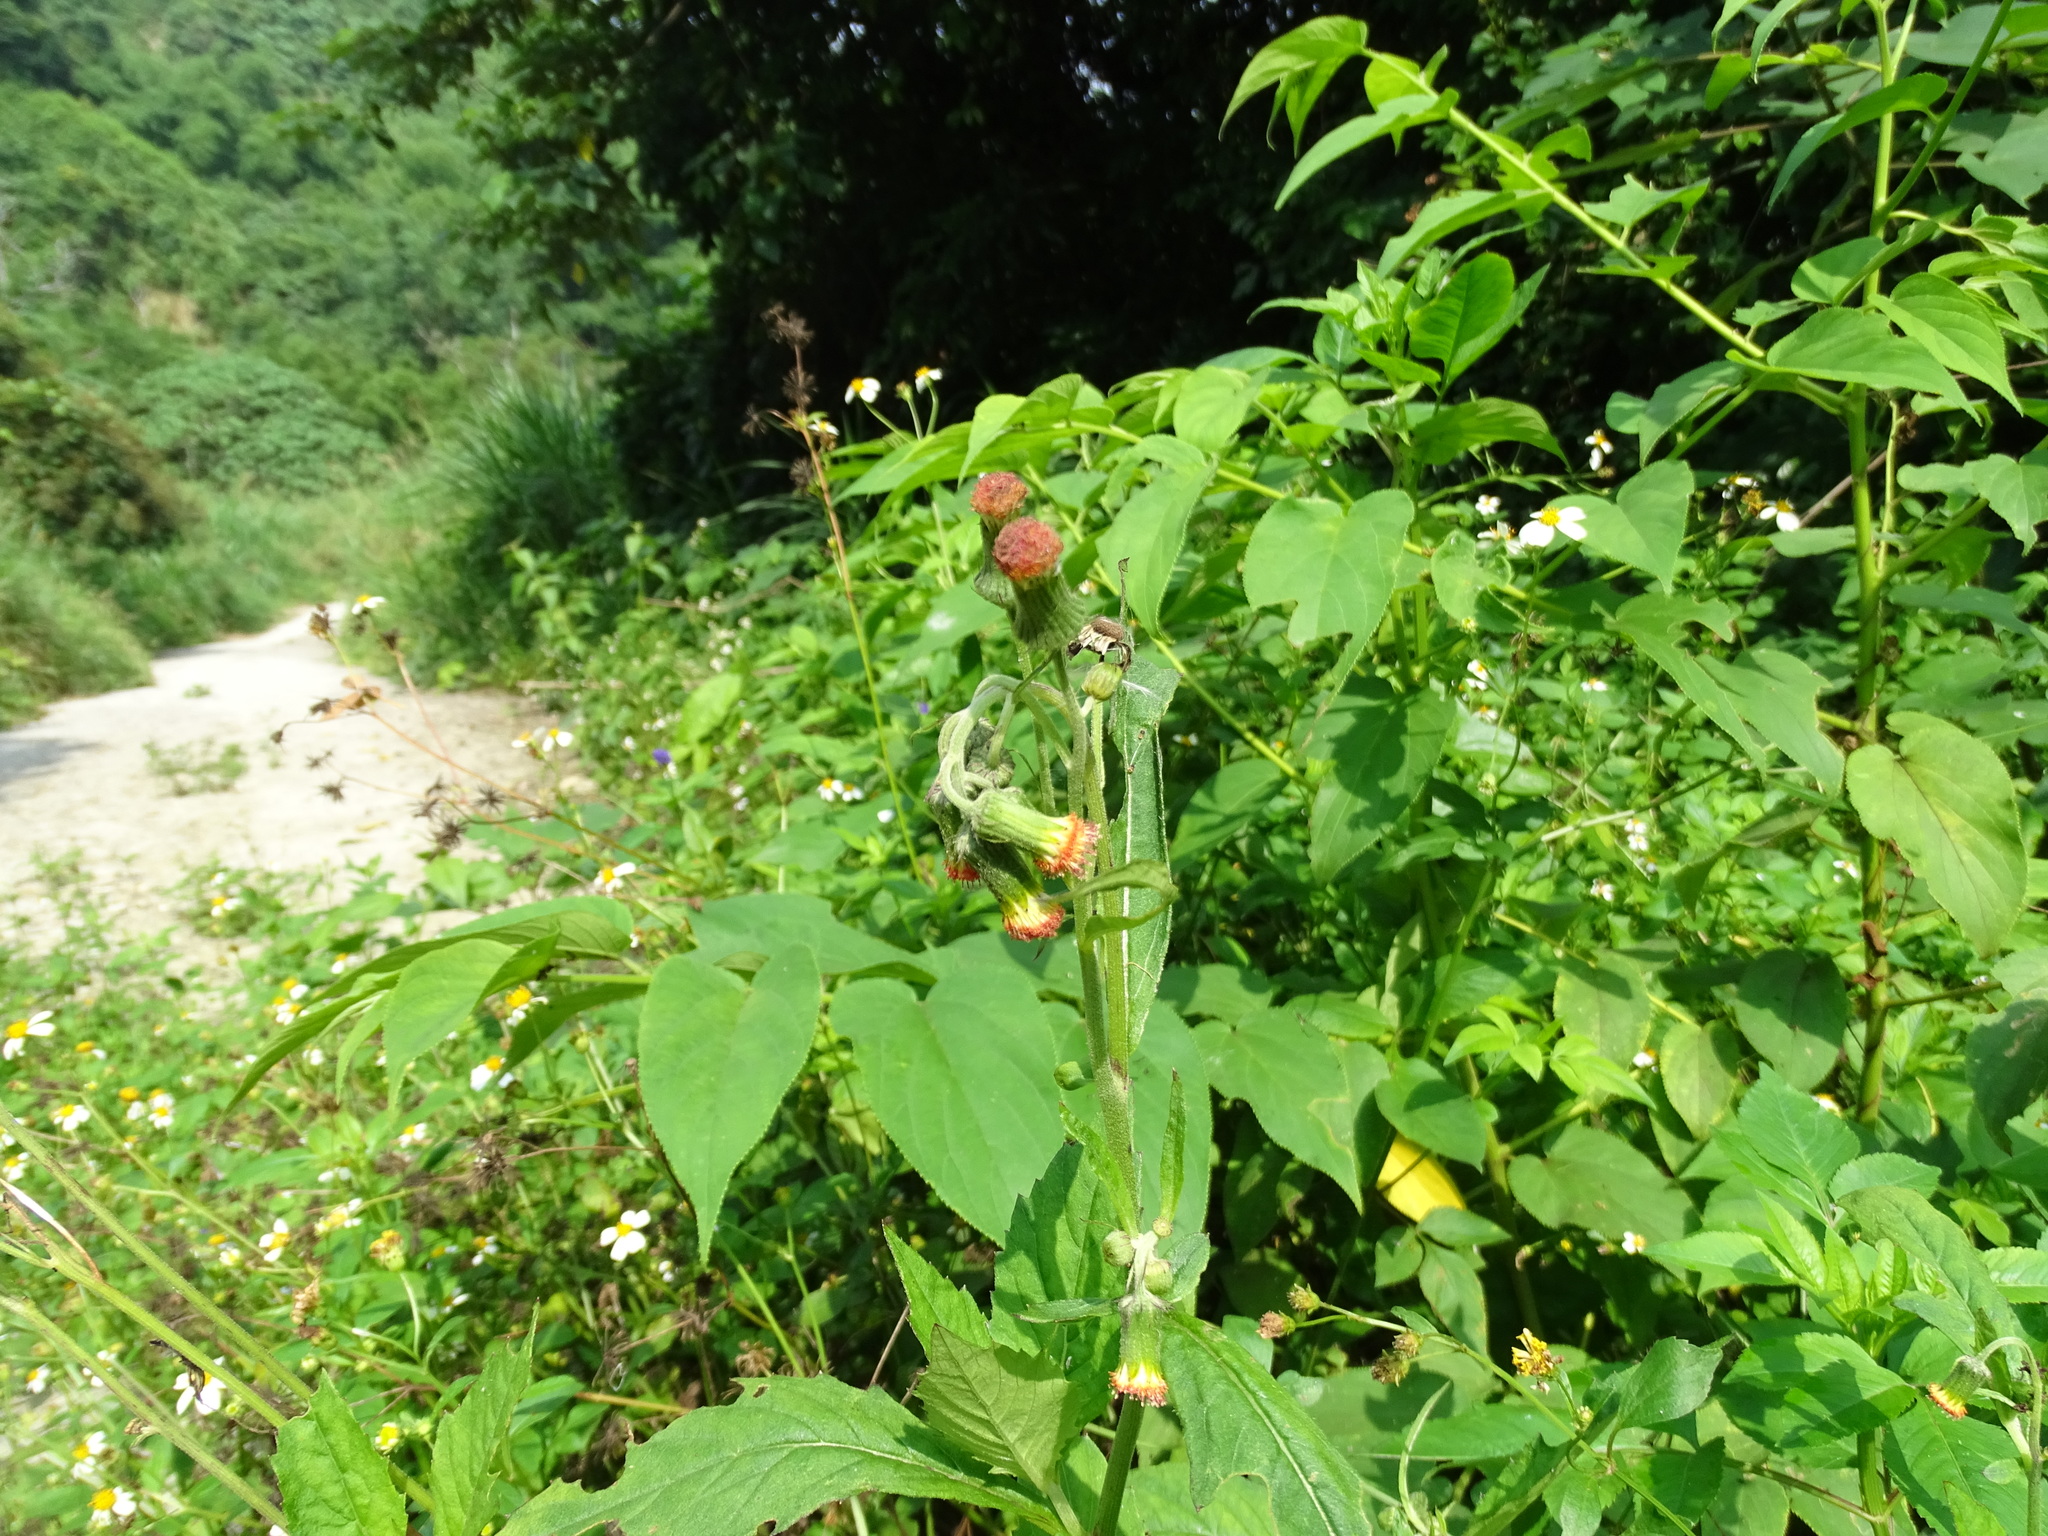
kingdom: Plantae
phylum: Tracheophyta
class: Magnoliopsida
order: Asterales
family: Asteraceae
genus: Crassocephalum
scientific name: Crassocephalum crepidioides
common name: Redflower ragleaf
